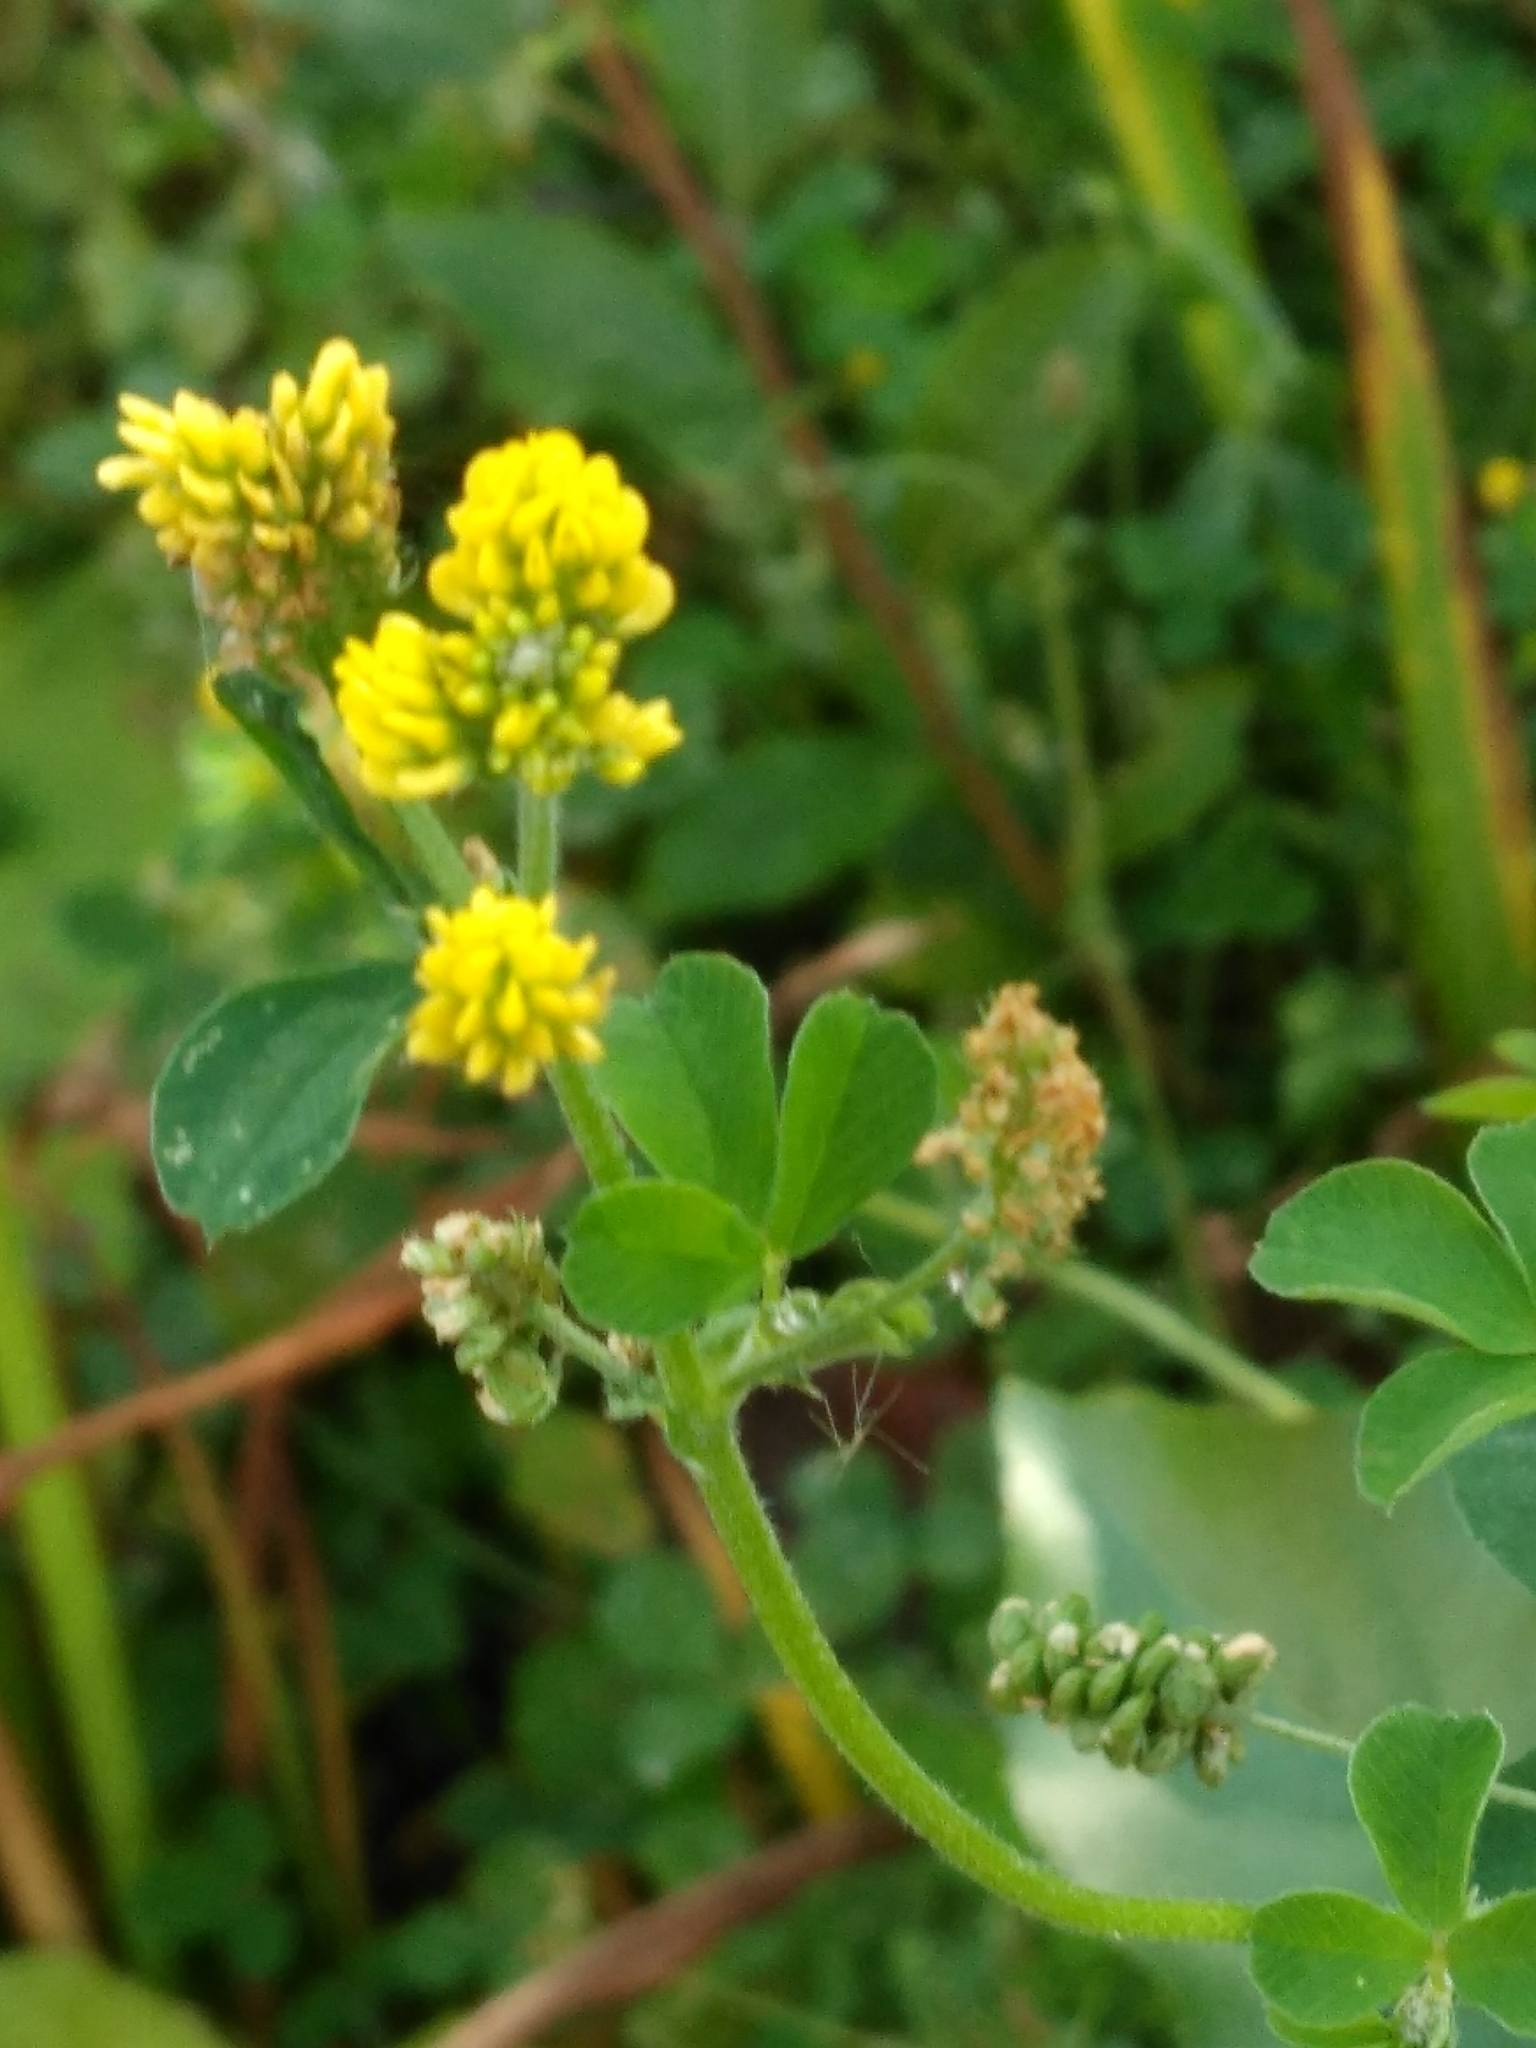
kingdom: Plantae
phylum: Tracheophyta
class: Magnoliopsida
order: Fabales
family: Fabaceae
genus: Medicago
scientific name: Medicago lupulina
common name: Black medick
